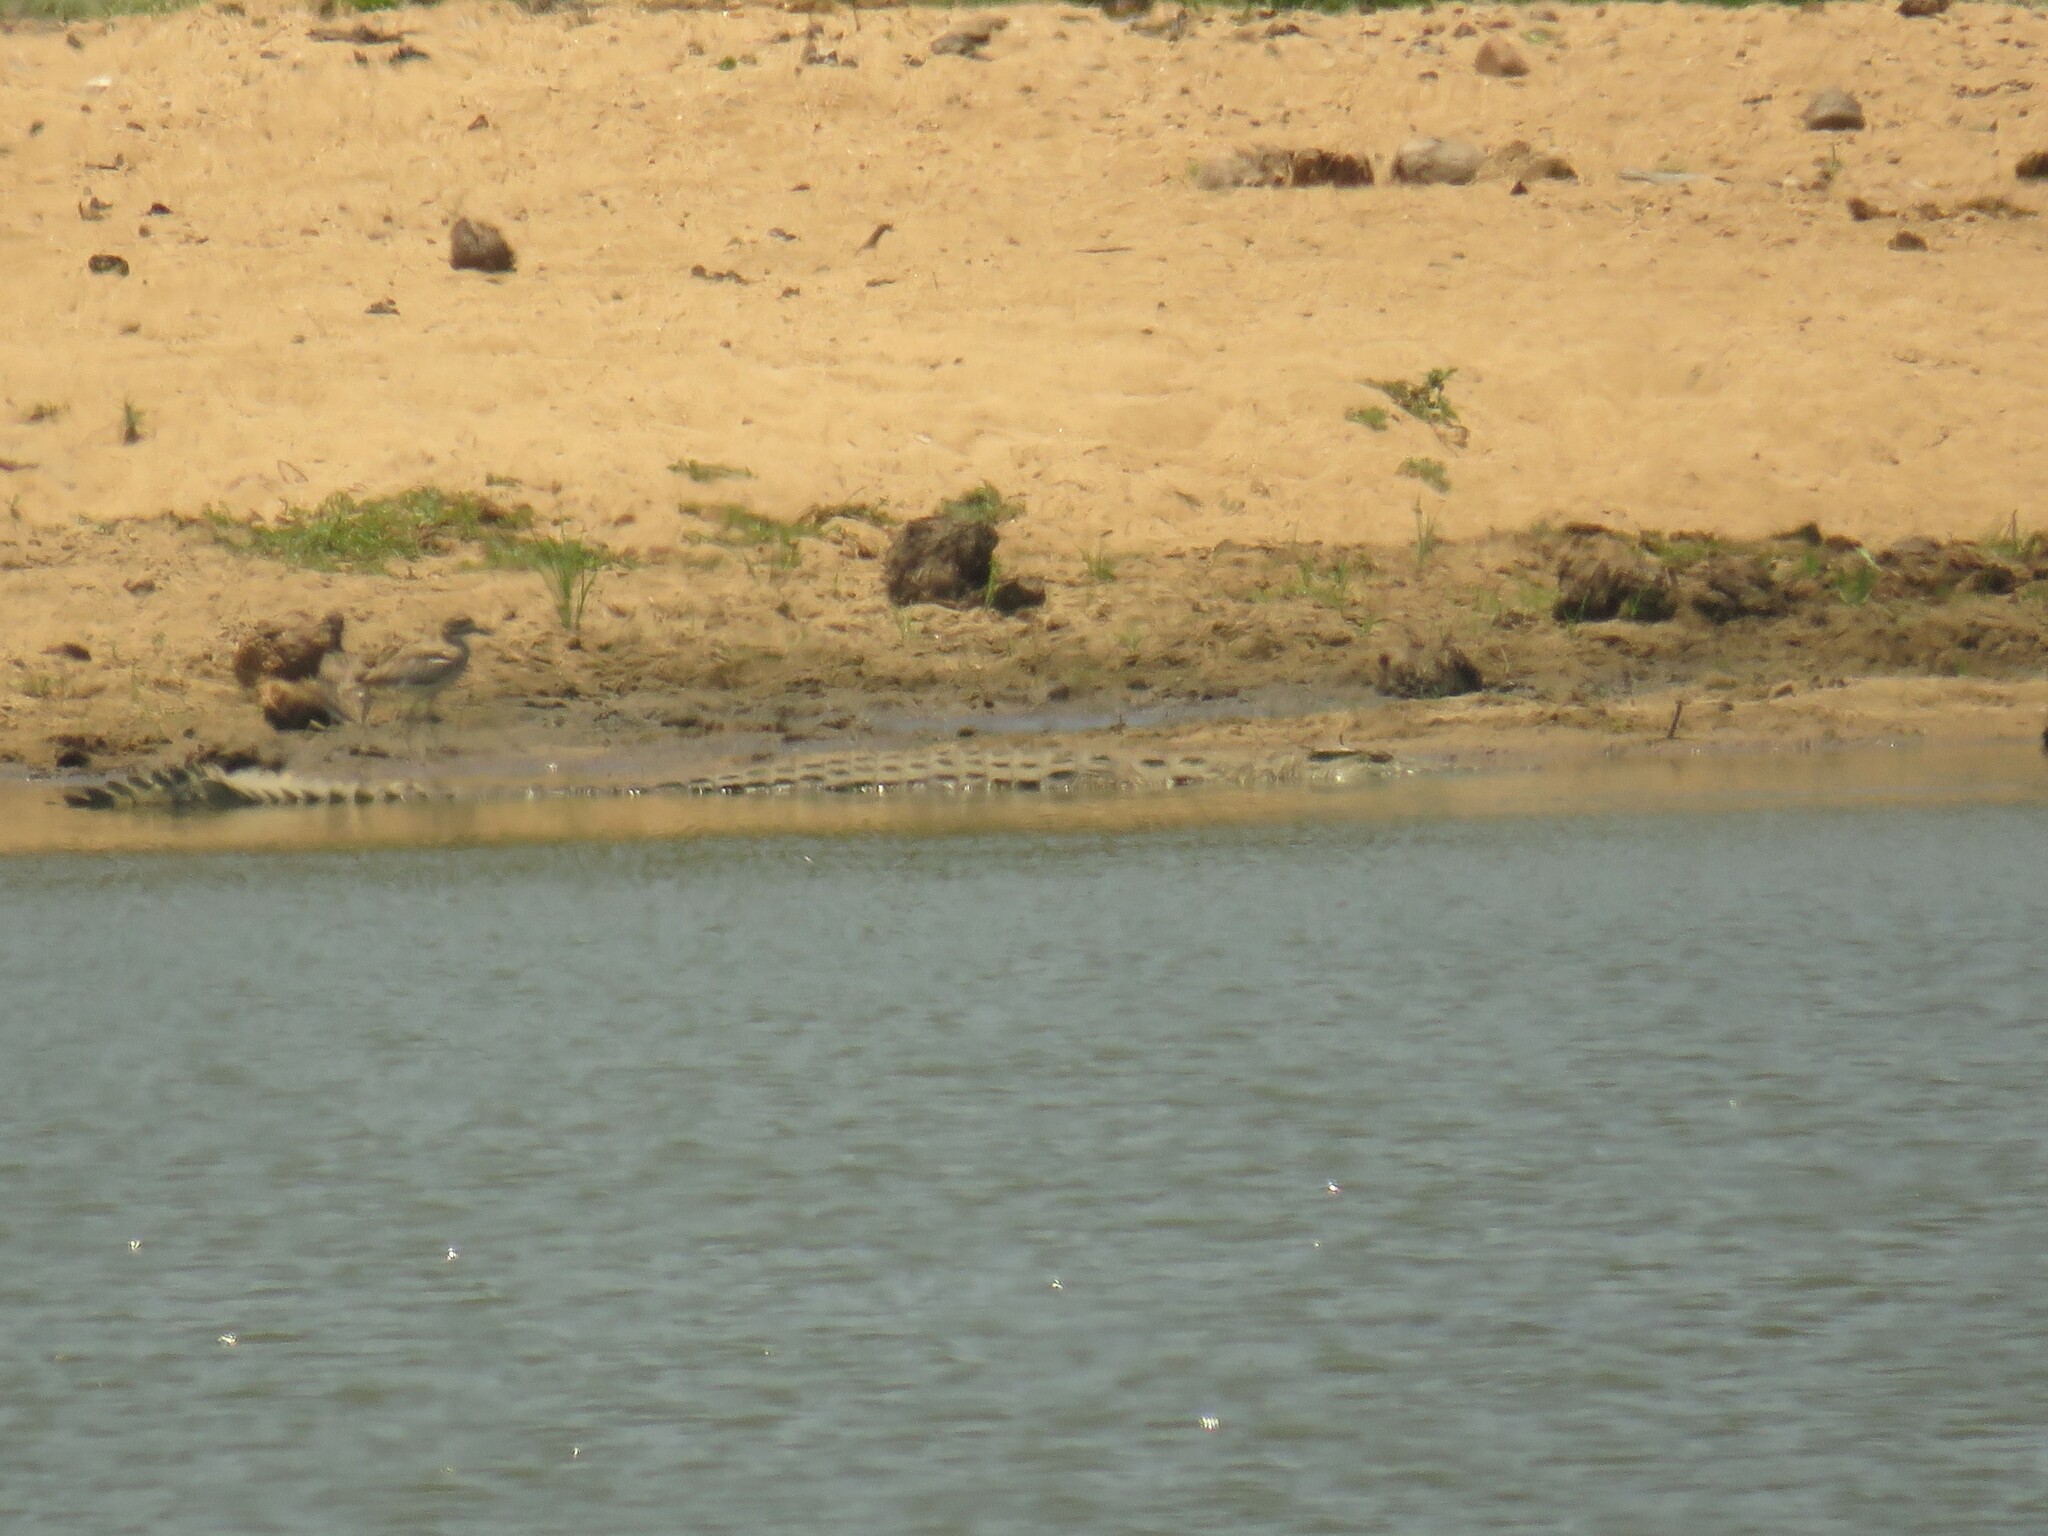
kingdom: Animalia
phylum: Chordata
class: Crocodylia
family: Crocodylidae
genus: Crocodylus
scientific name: Crocodylus niloticus
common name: Nile crocodile
